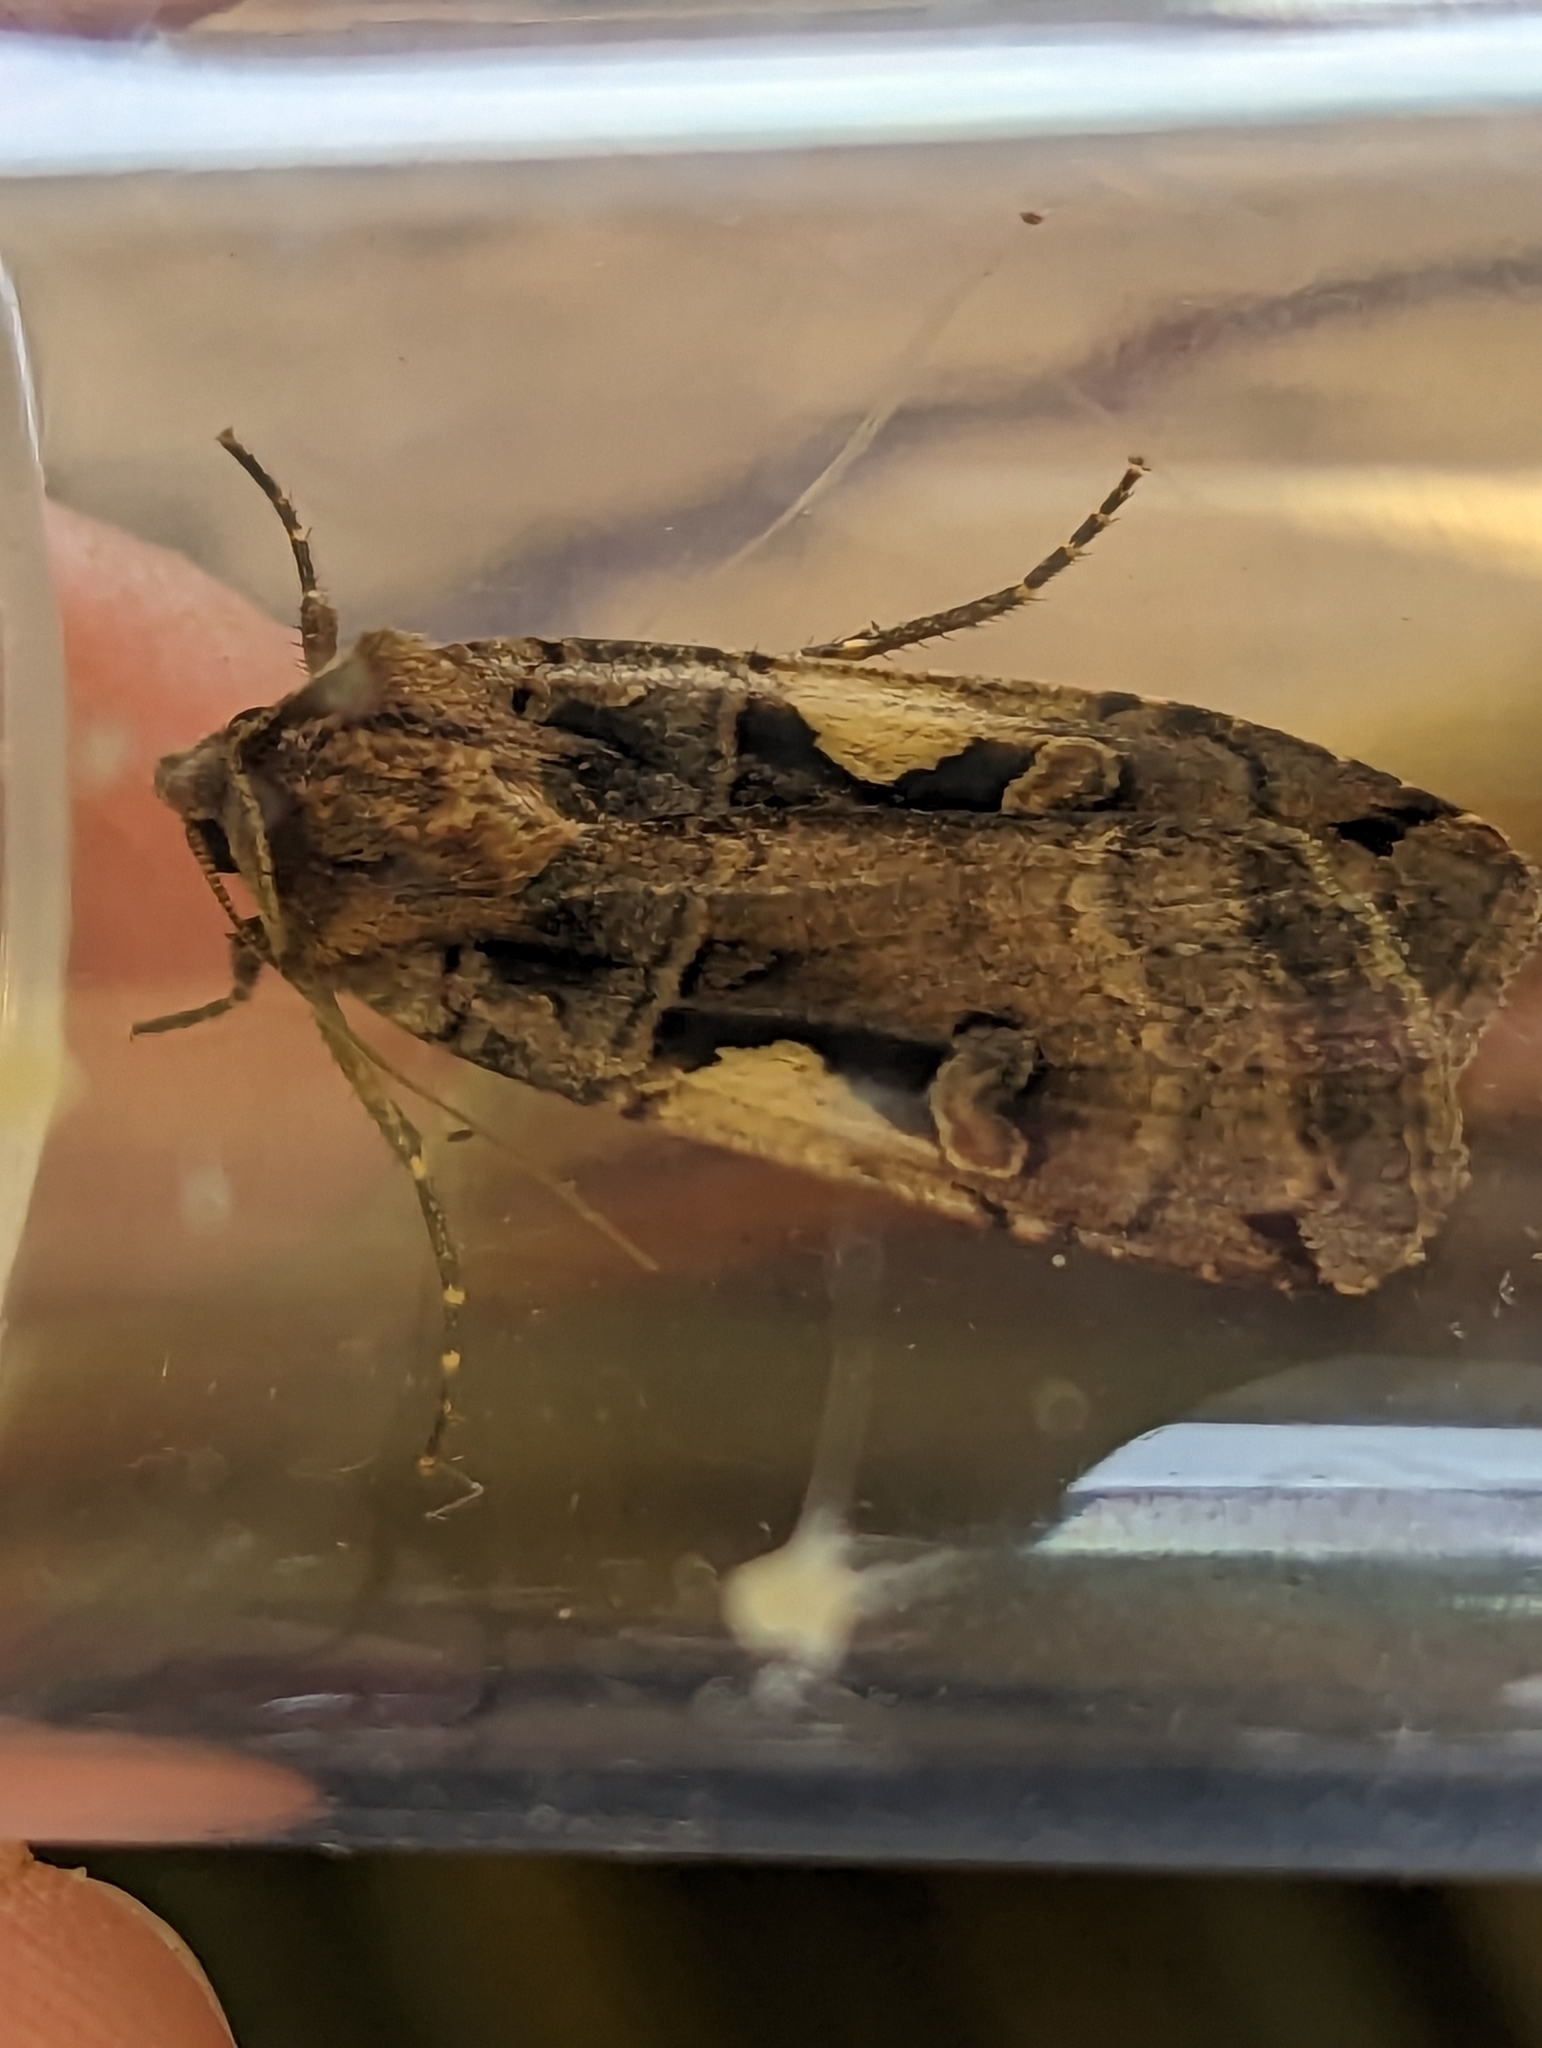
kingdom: Animalia
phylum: Arthropoda
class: Insecta
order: Lepidoptera
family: Noctuidae
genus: Xestia
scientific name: Xestia c-nigrum
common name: Setaceous hebrew character
